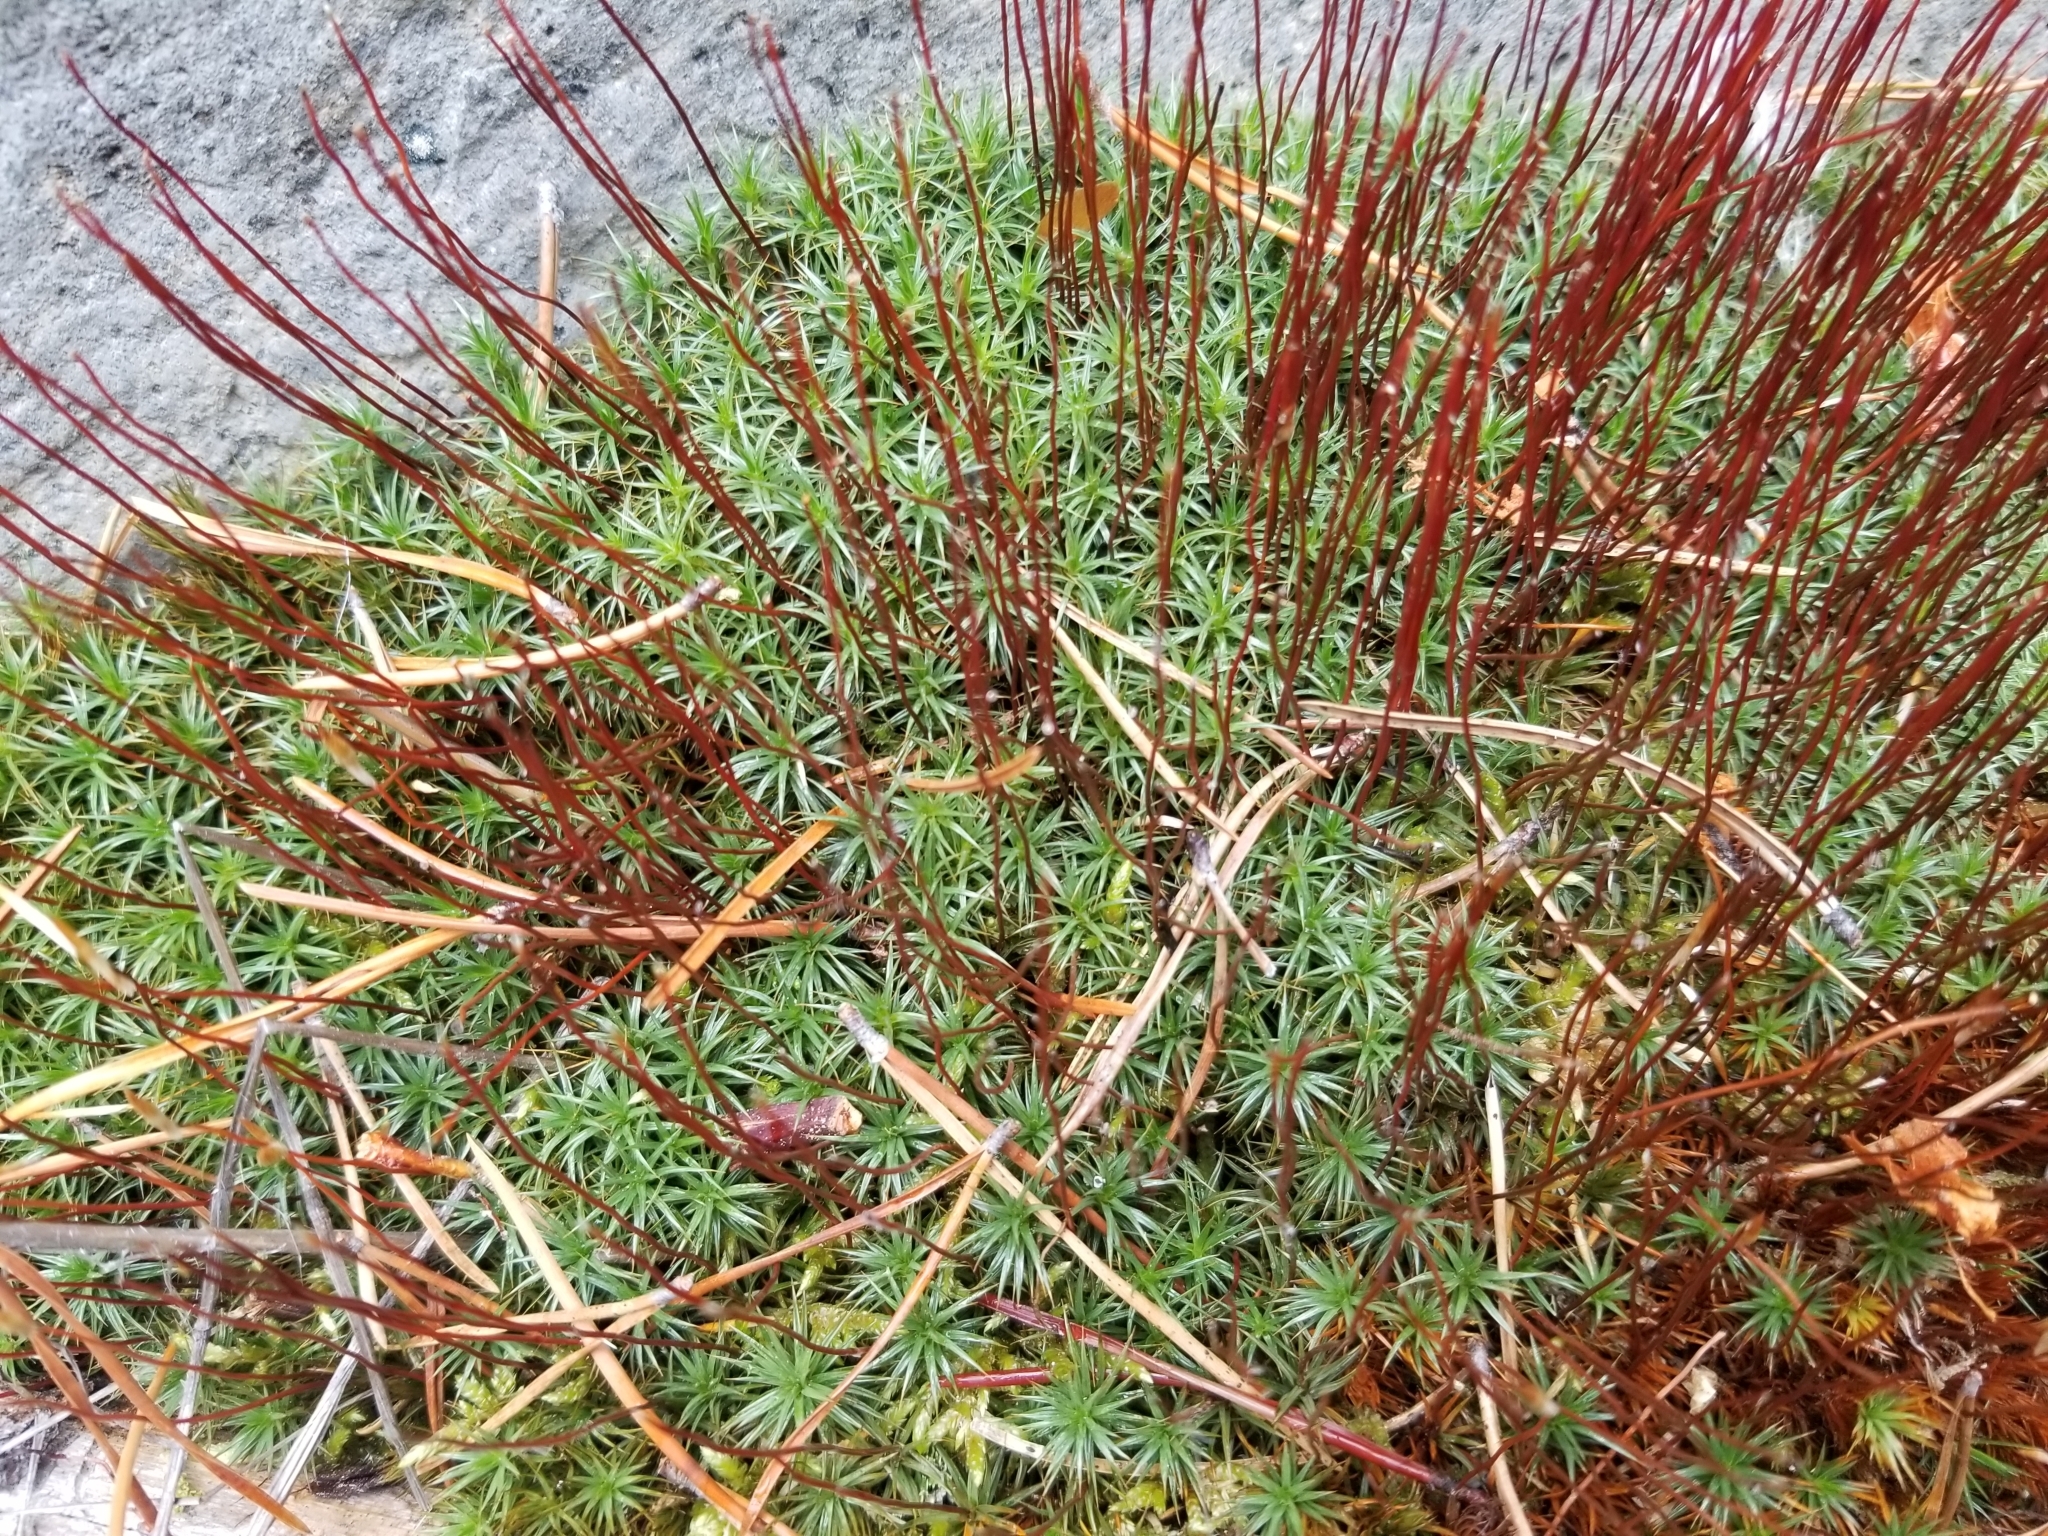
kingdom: Plantae
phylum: Bryophyta
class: Polytrichopsida
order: Polytrichales
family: Polytrichaceae
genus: Polytrichum
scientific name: Polytrichum juniperinum
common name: Juniper haircap moss
